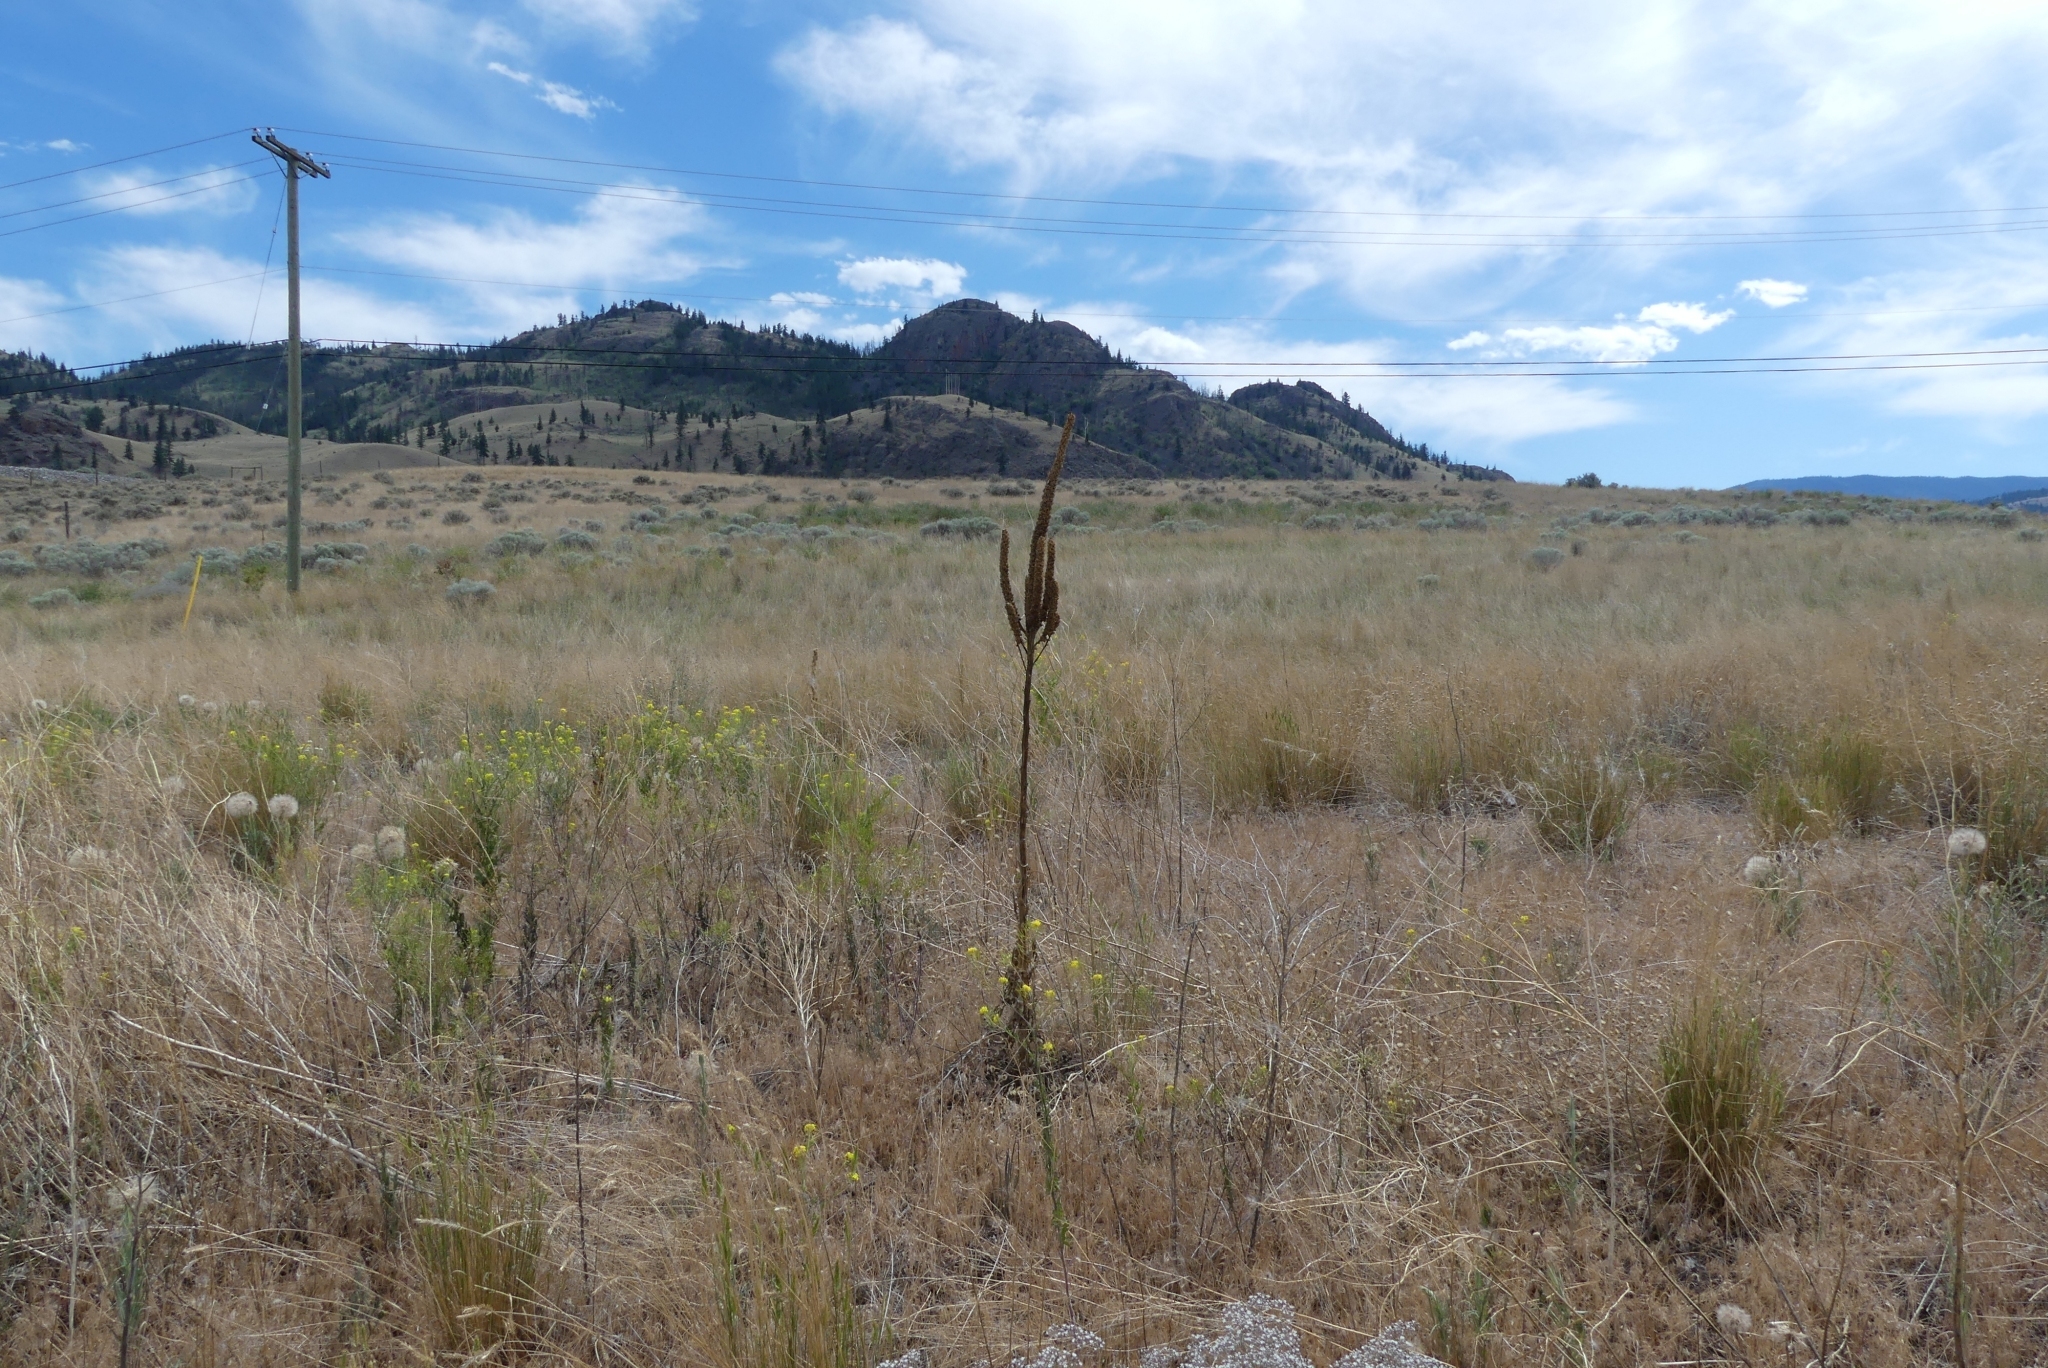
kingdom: Plantae
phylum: Tracheophyta
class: Magnoliopsida
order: Lamiales
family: Scrophulariaceae
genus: Verbascum
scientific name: Verbascum thapsus
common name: Common mullein
